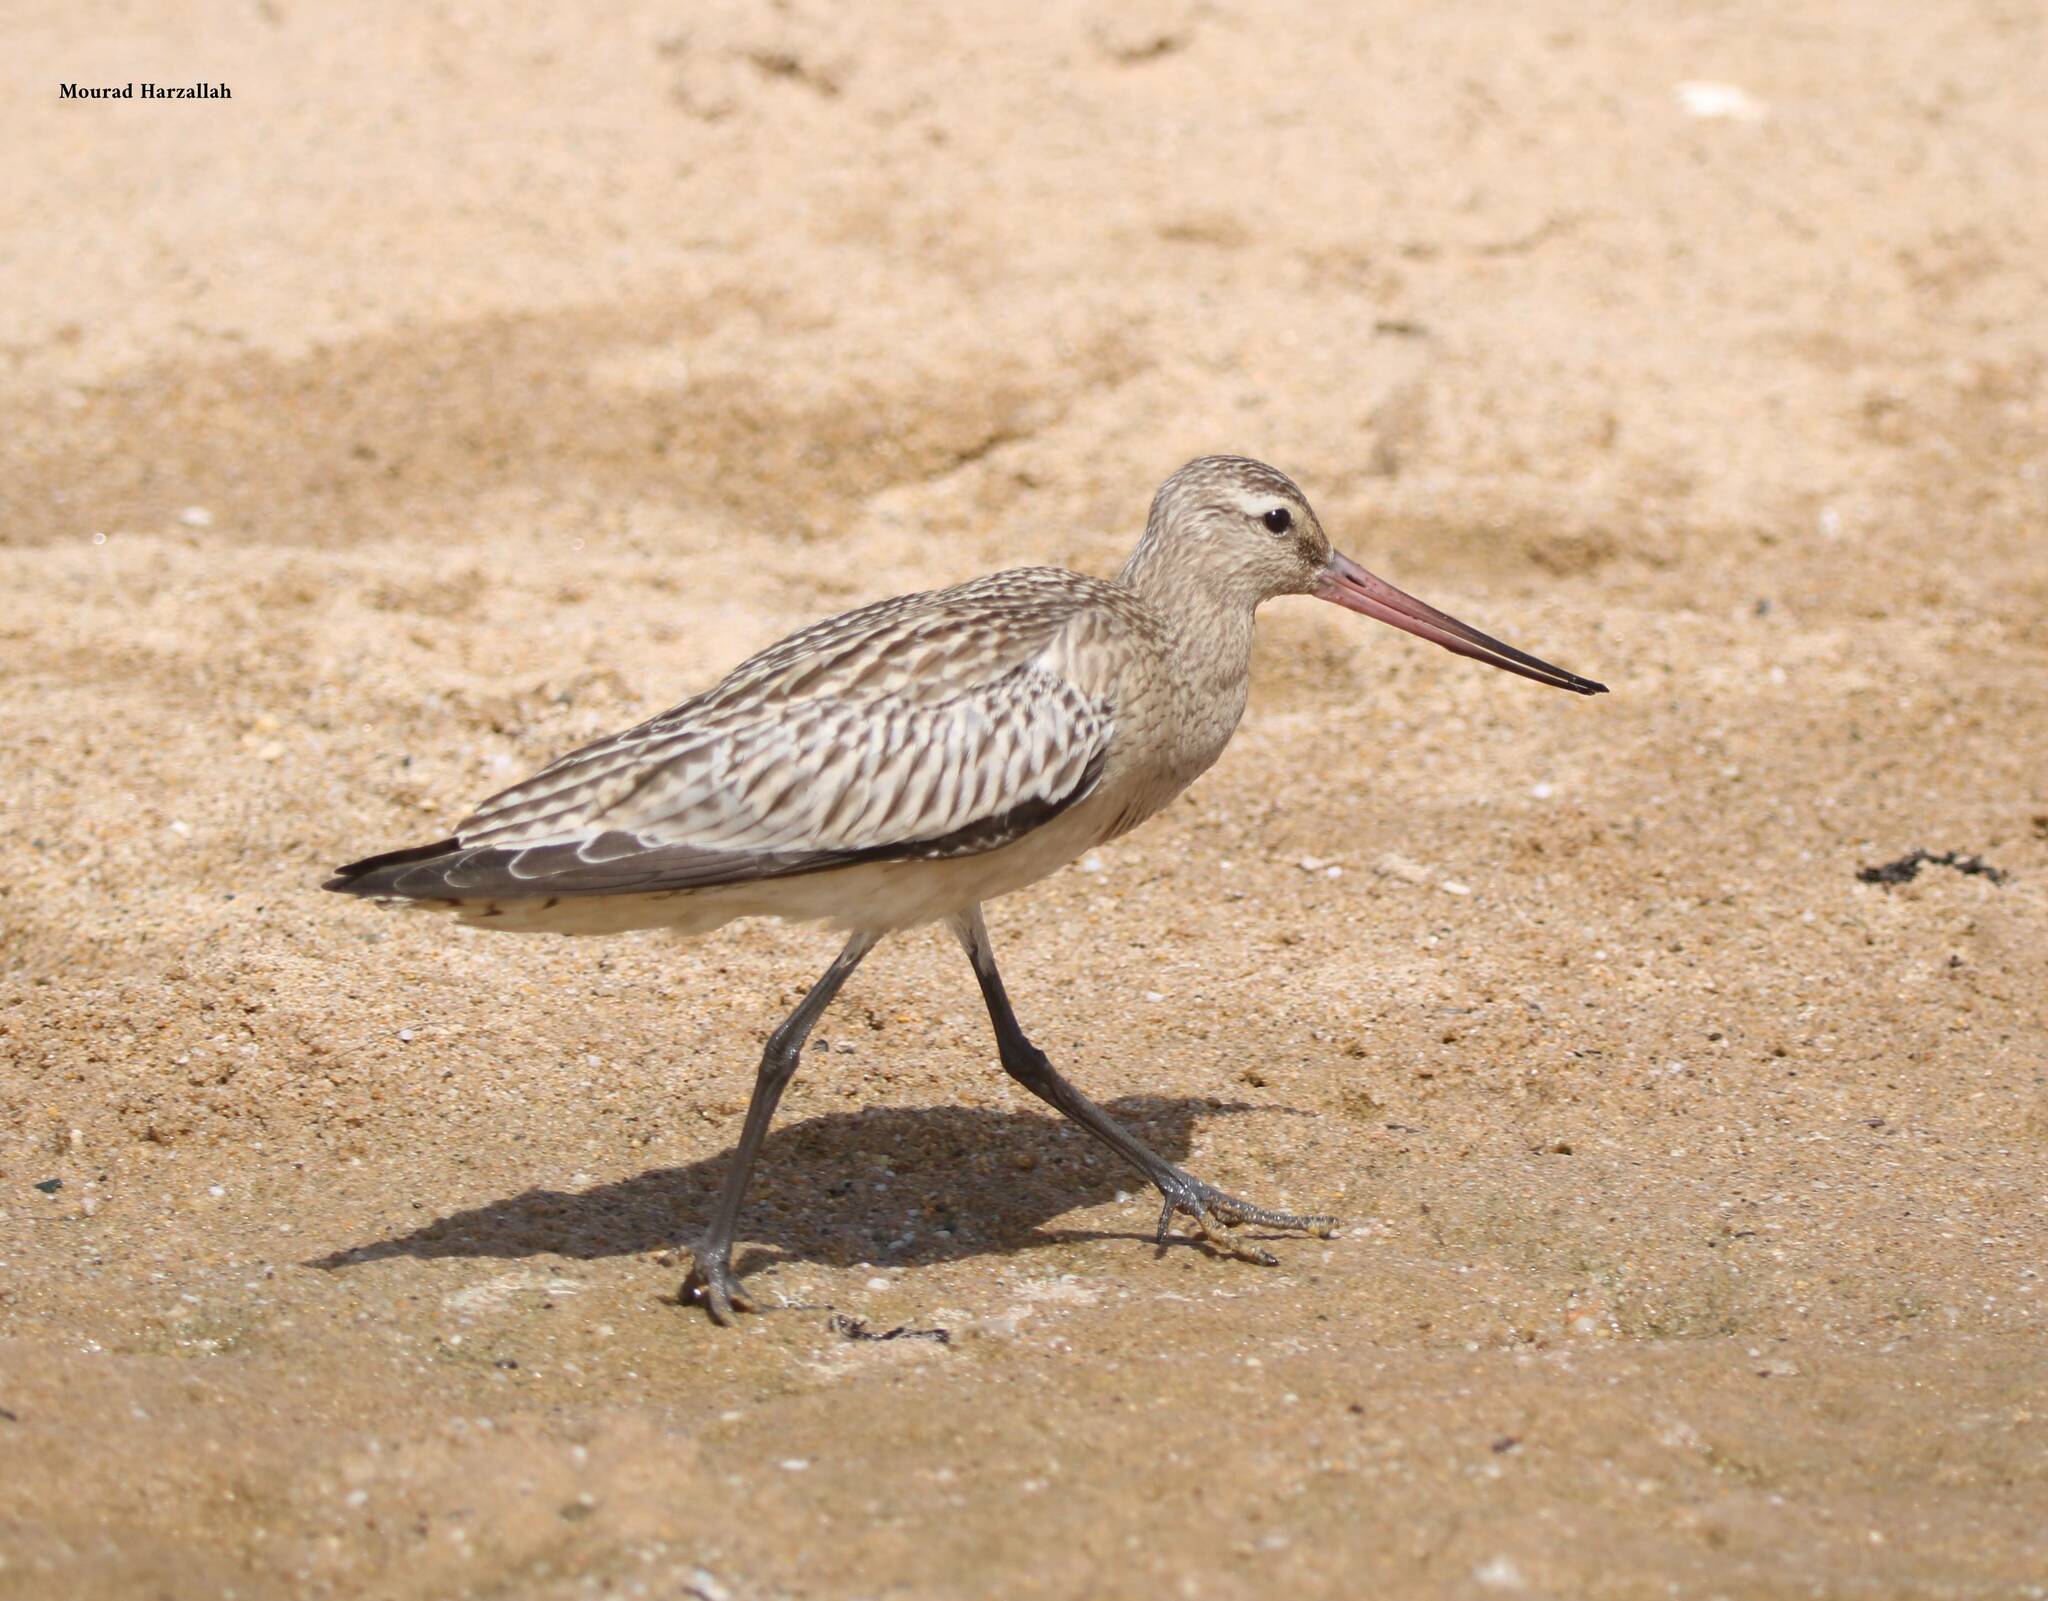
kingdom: Animalia
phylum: Chordata
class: Aves
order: Charadriiformes
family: Scolopacidae
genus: Limosa
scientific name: Limosa lapponica
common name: Bar-tailed godwit
